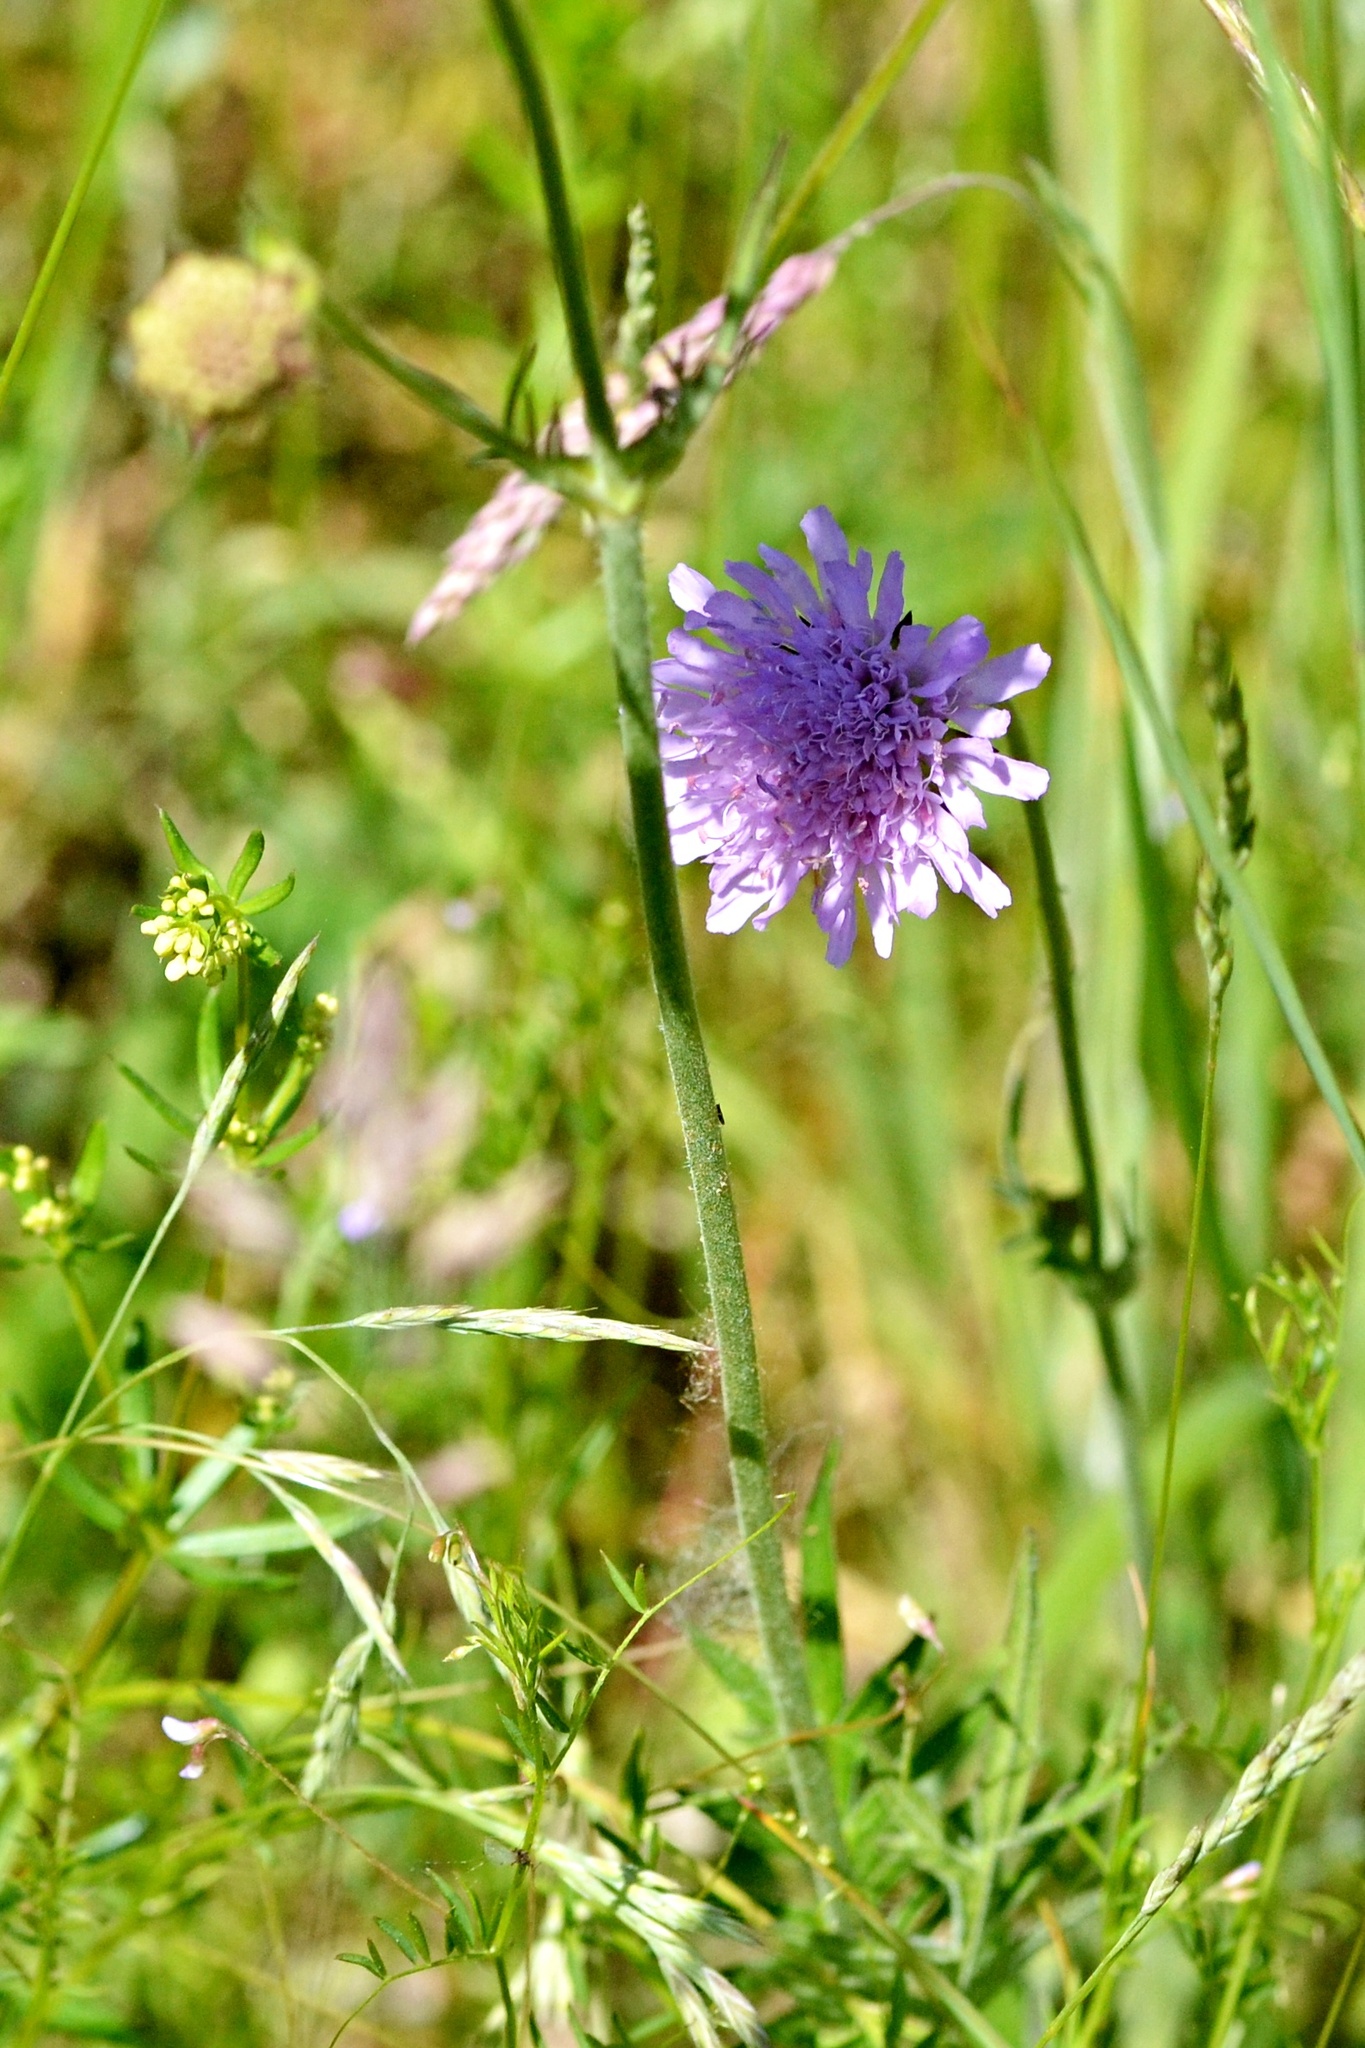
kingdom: Plantae
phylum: Tracheophyta
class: Magnoliopsida
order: Dipsacales
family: Caprifoliaceae
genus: Knautia
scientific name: Knautia arvensis
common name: Field scabiosa
